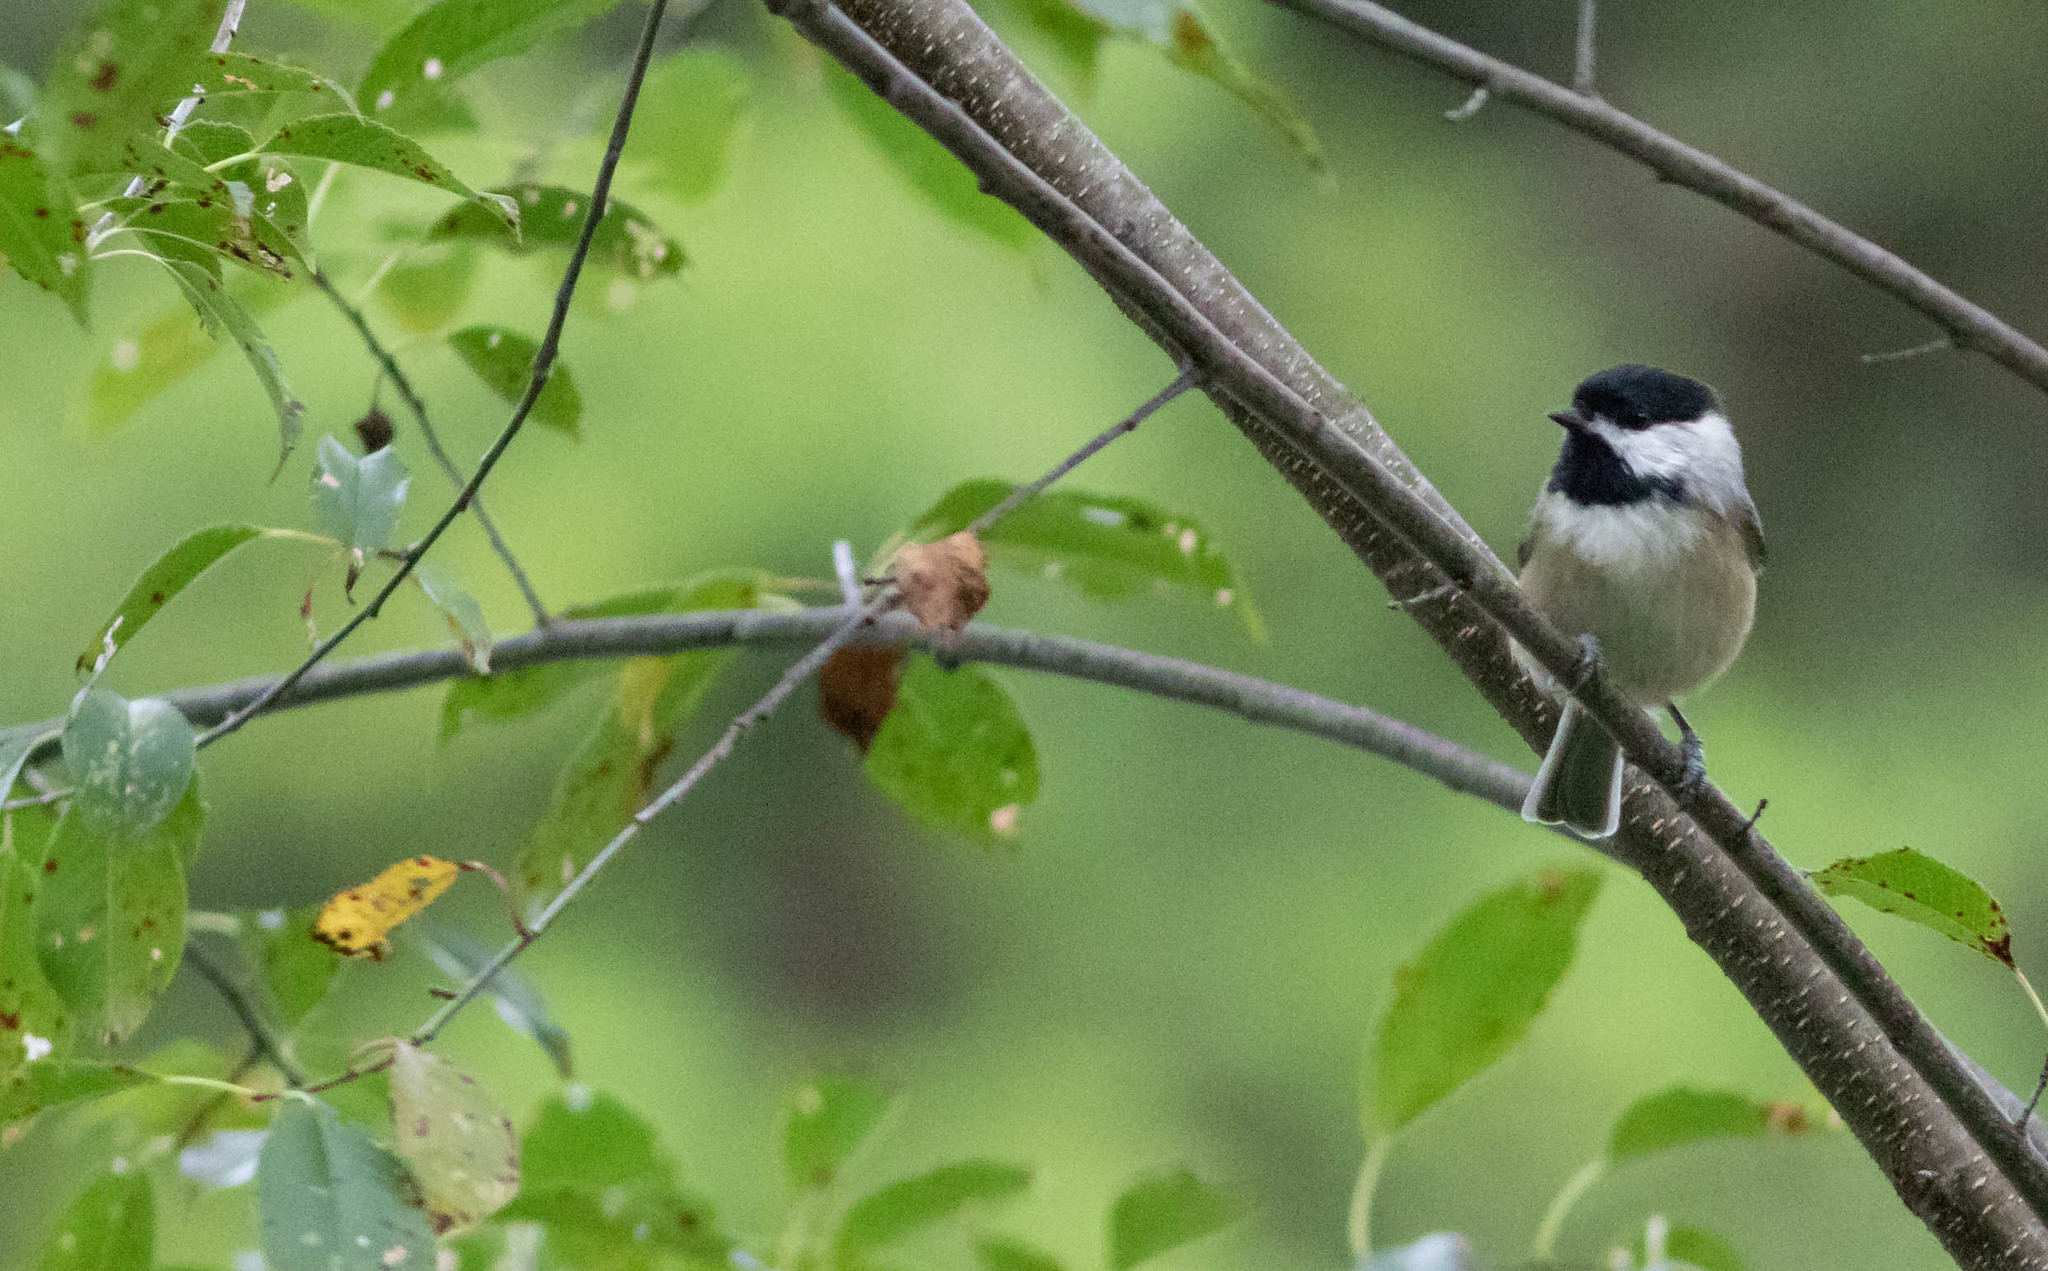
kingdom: Animalia
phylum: Chordata
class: Aves
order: Passeriformes
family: Paridae
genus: Poecile
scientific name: Poecile carolinensis
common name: Carolina chickadee
